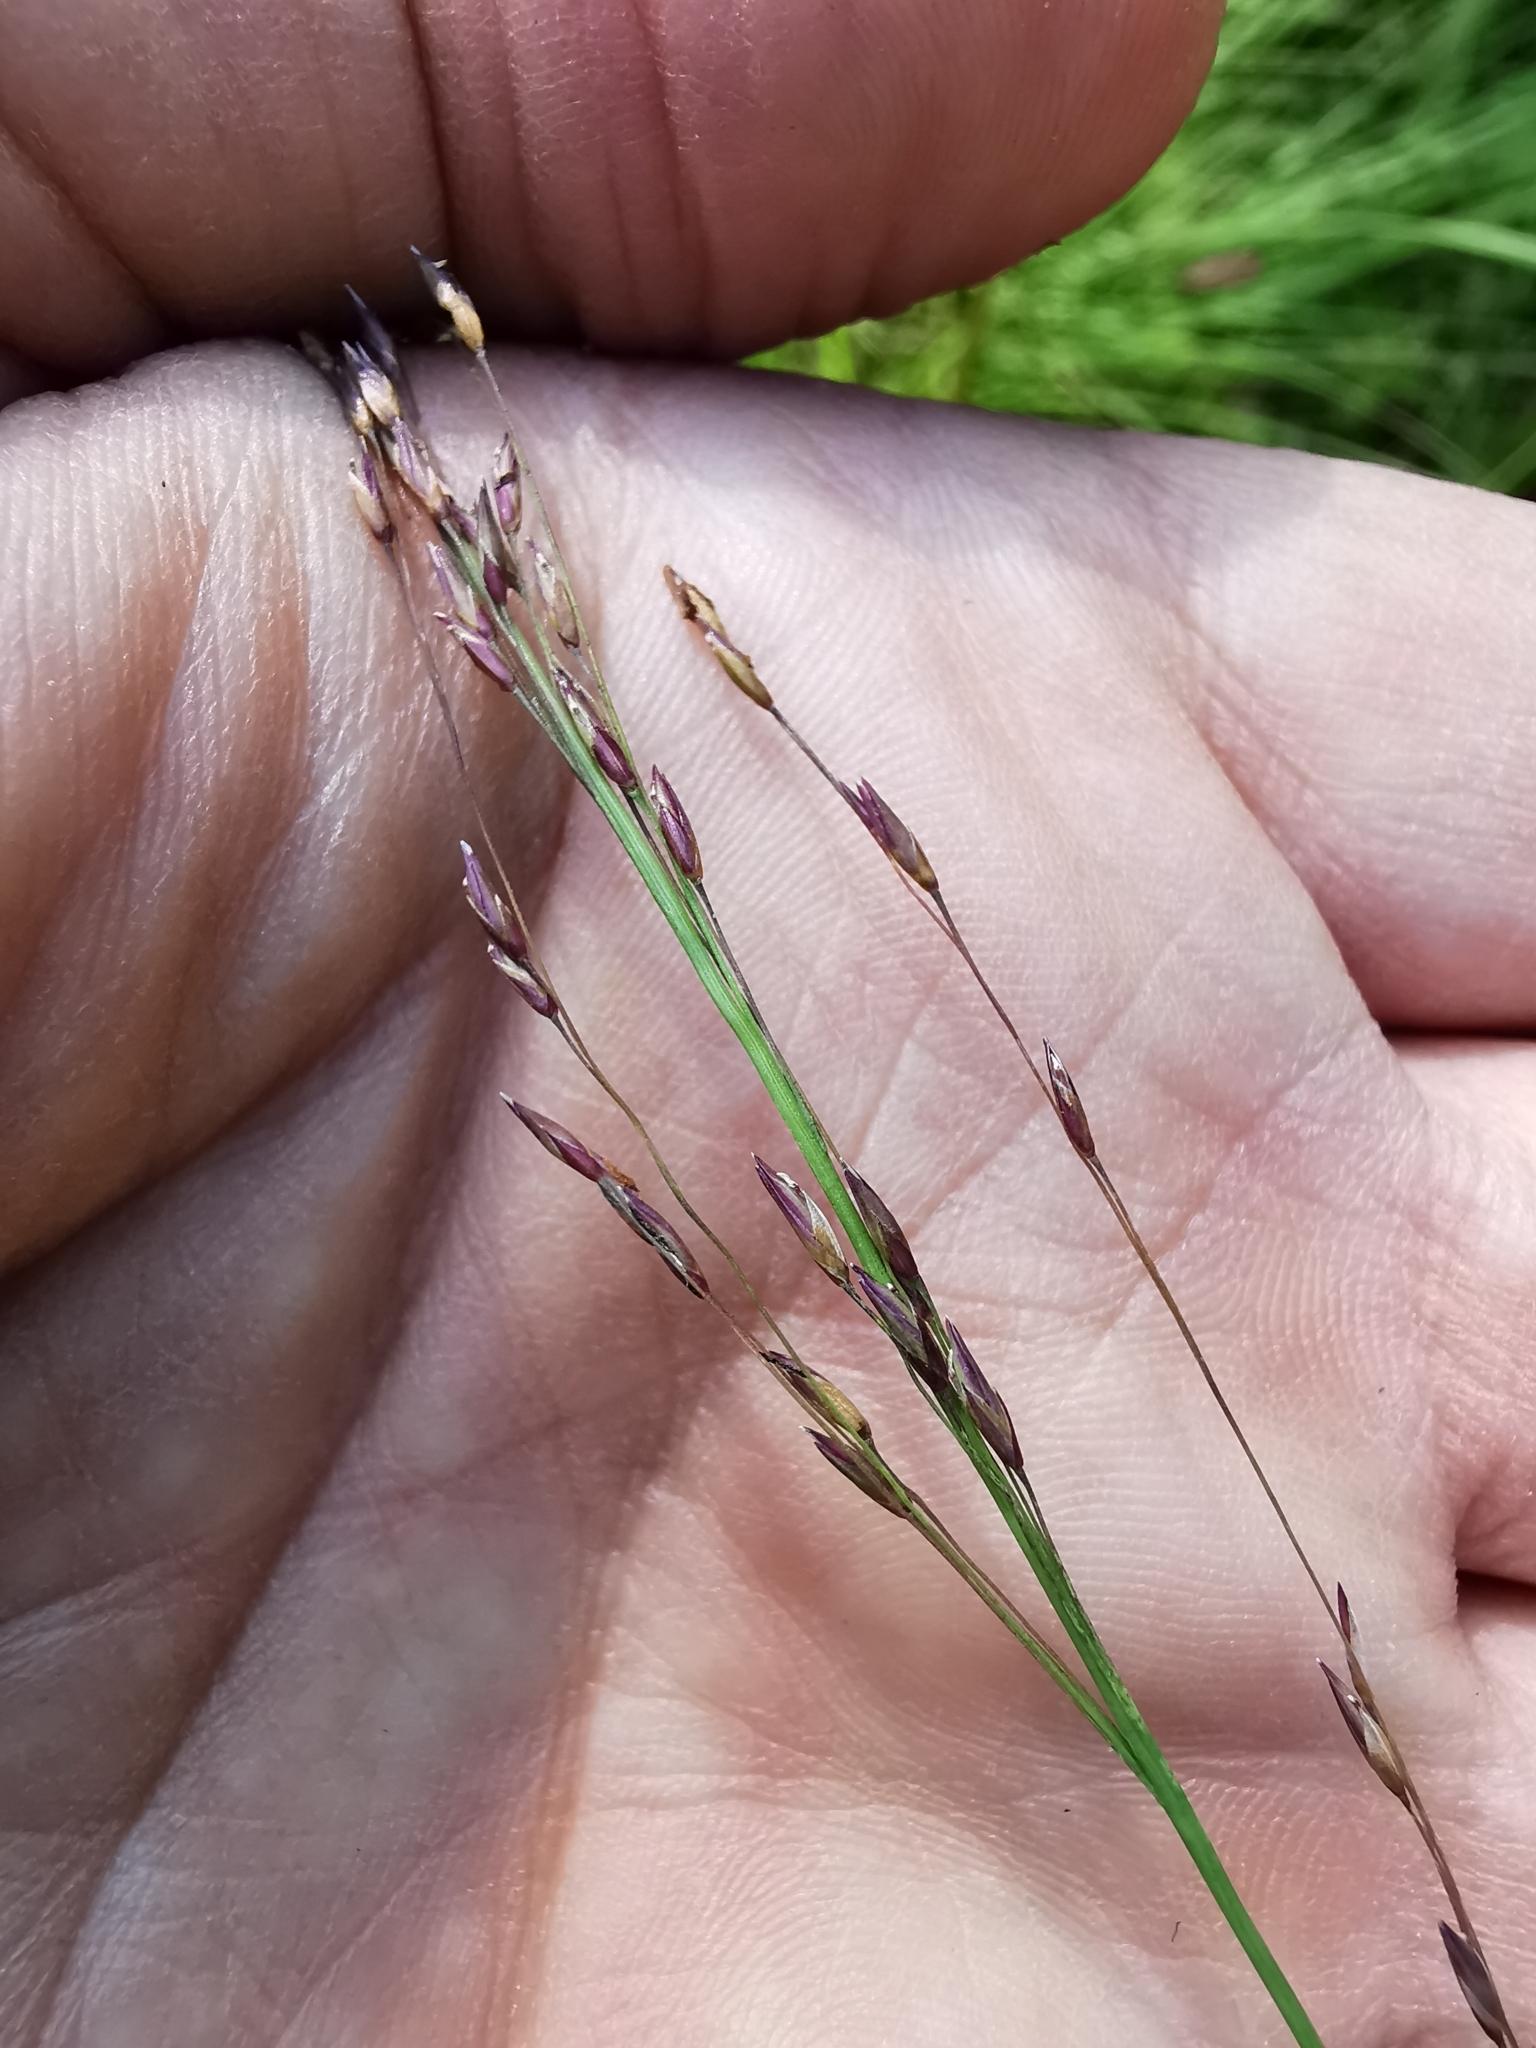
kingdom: Plantae
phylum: Tracheophyta
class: Liliopsida
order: Poales
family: Poaceae
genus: Molinia
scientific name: Molinia caerulea
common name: Purple moor-grass
